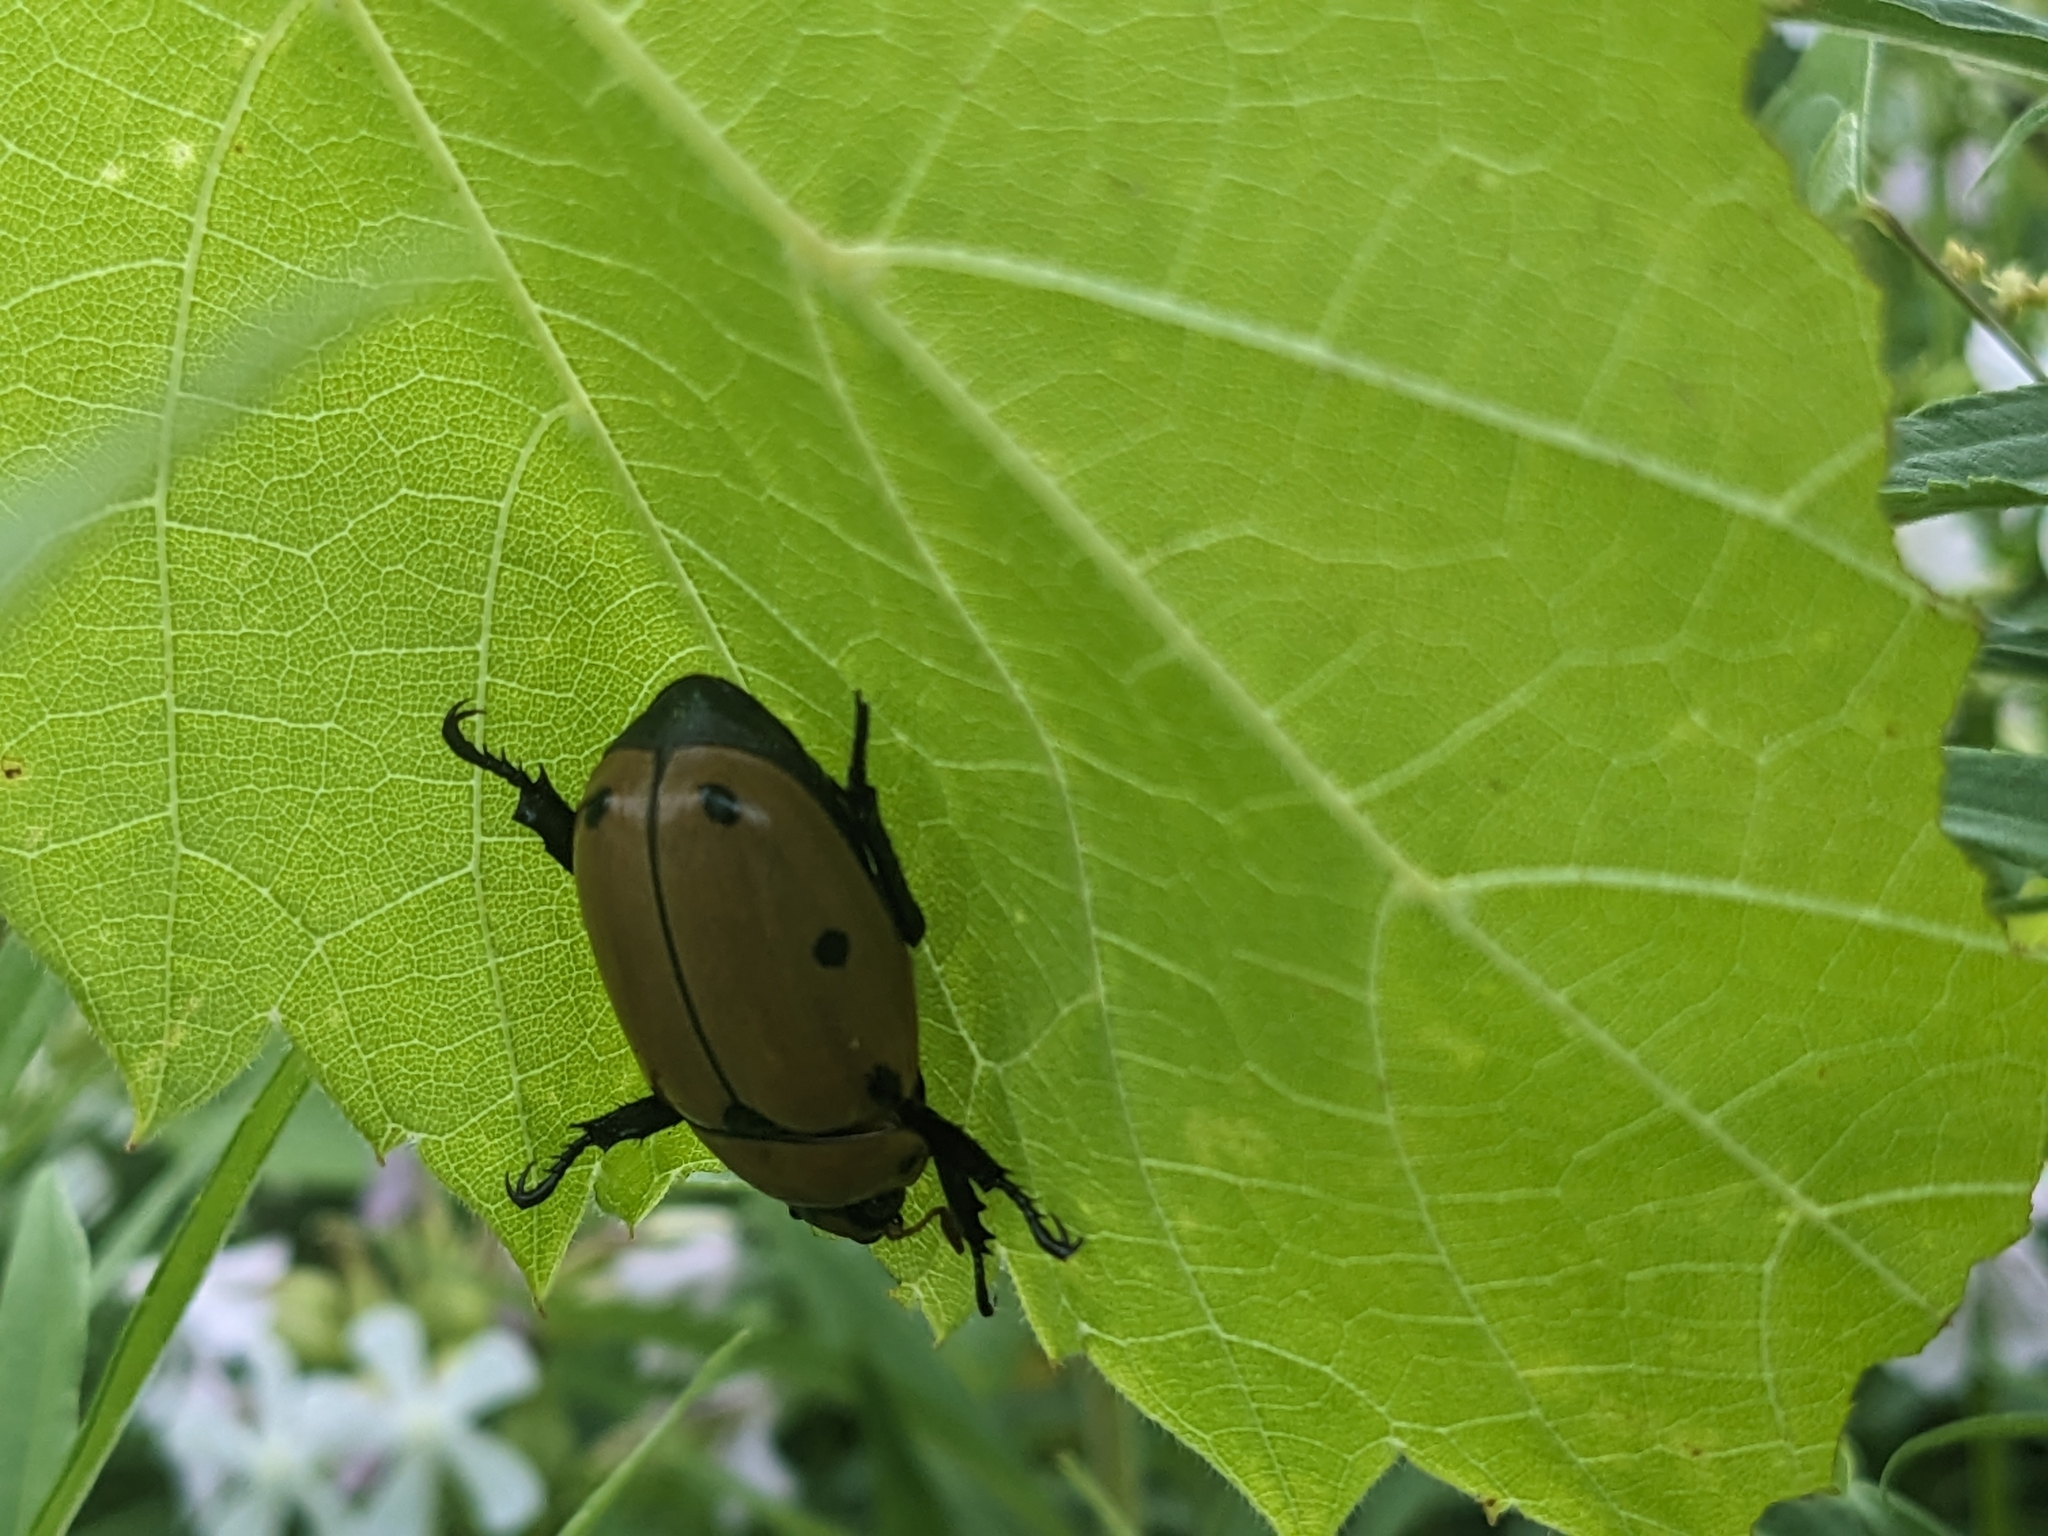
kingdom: Animalia
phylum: Arthropoda
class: Insecta
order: Coleoptera
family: Scarabaeidae
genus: Pelidnota
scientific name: Pelidnota punctata
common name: Grapevine beetle
